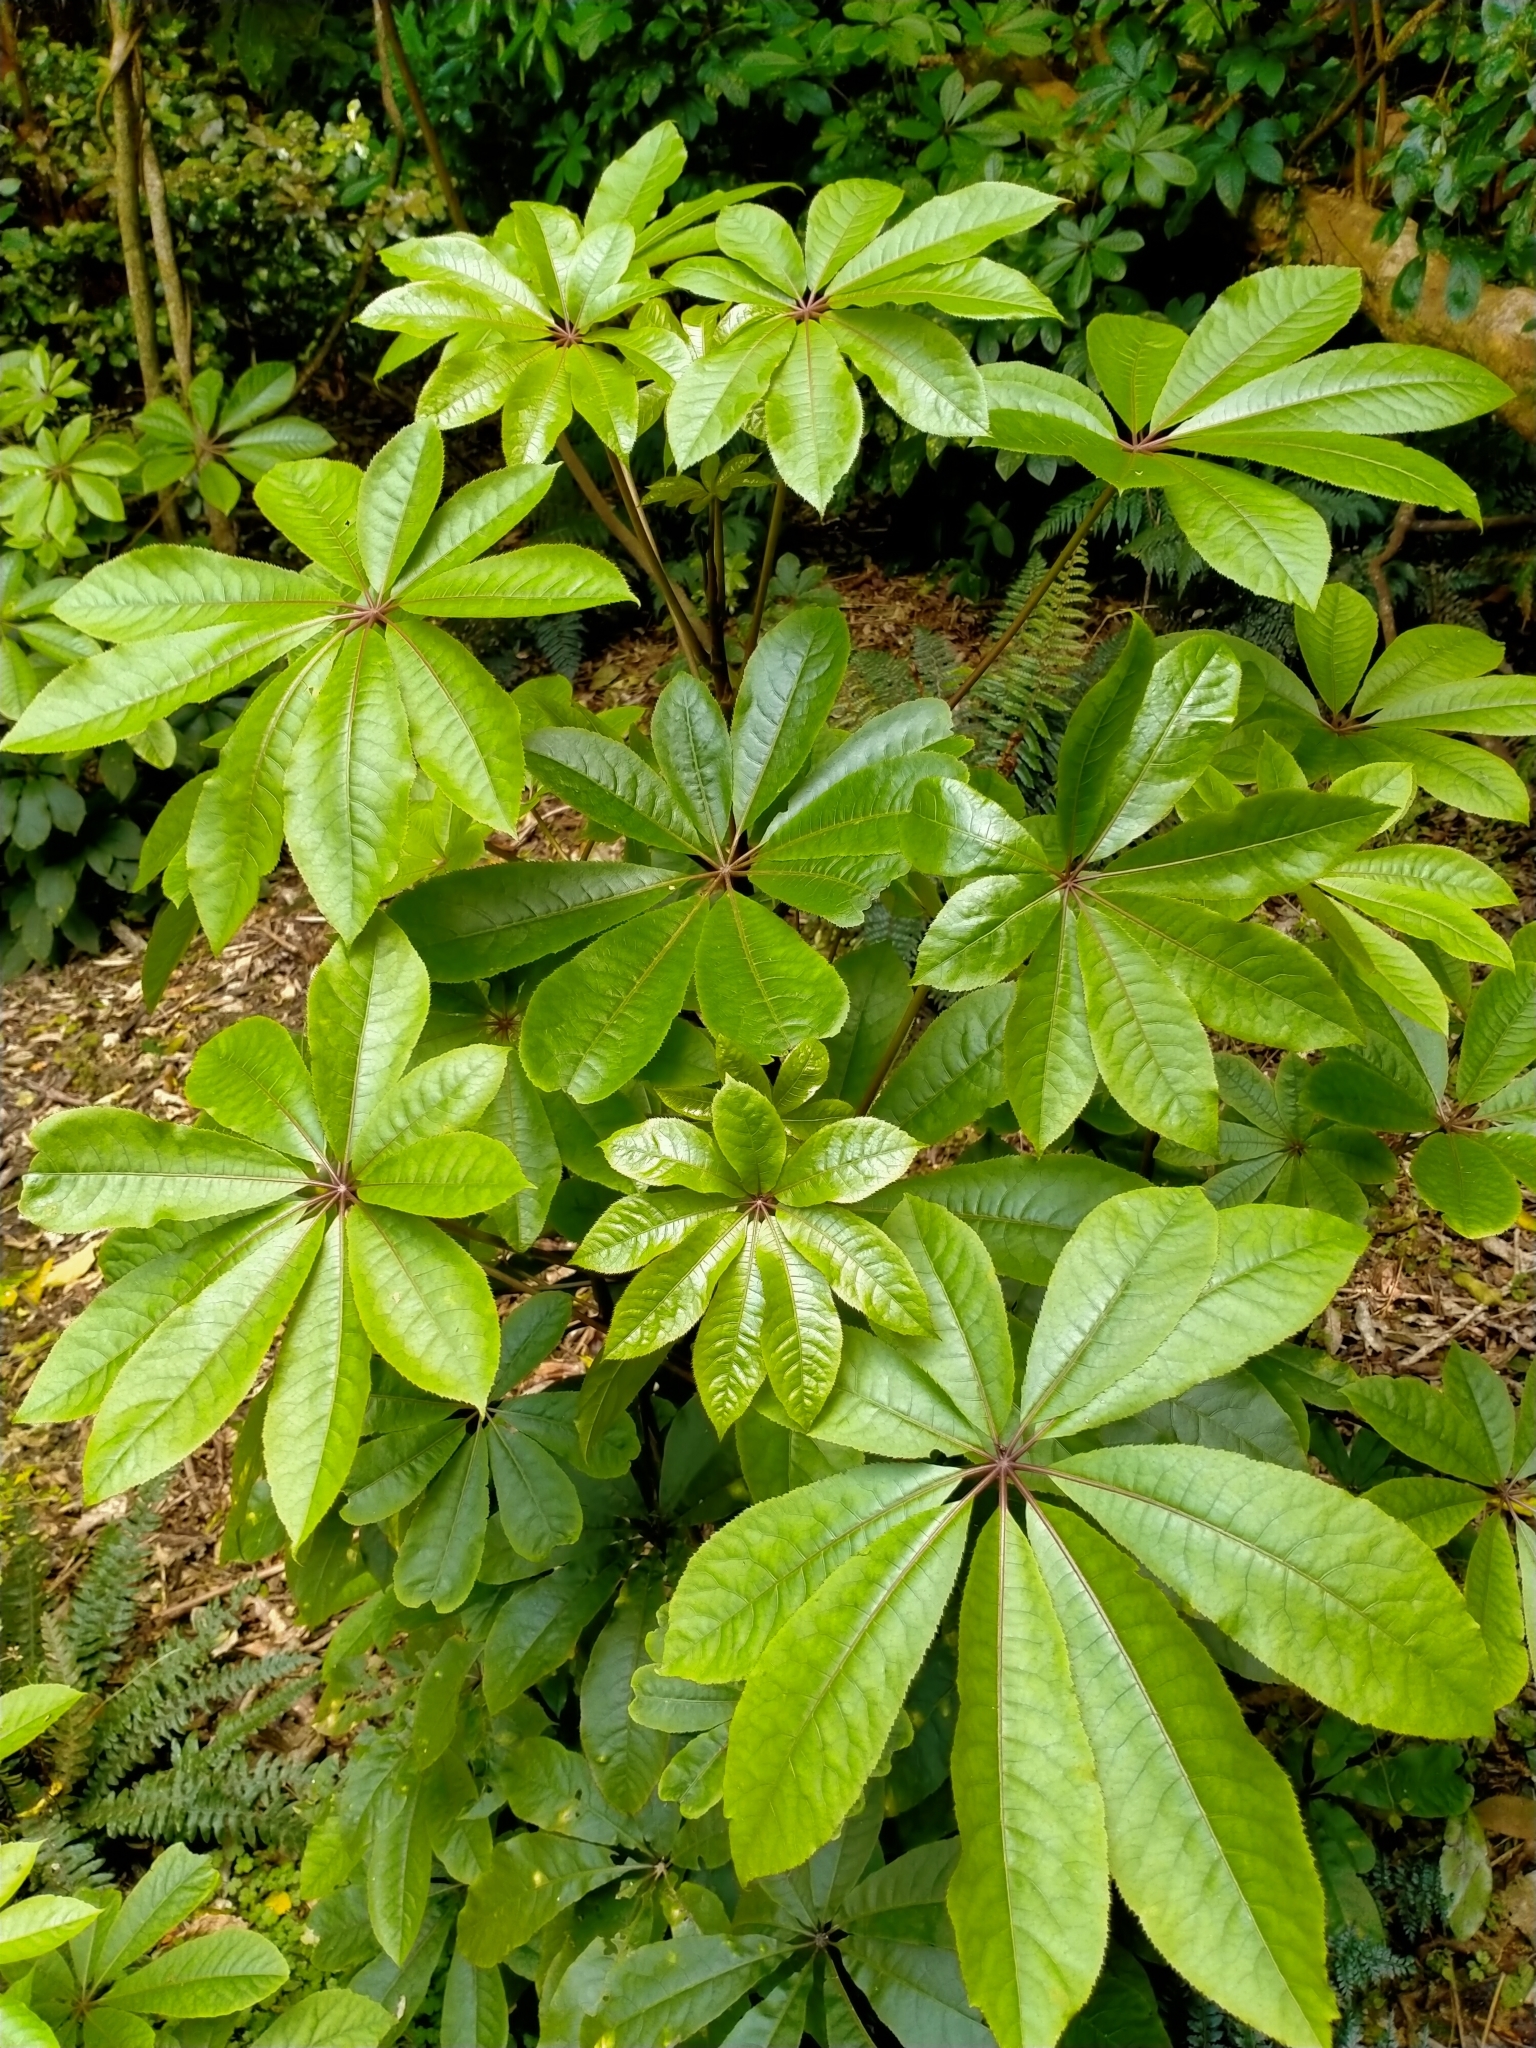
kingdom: Plantae
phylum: Tracheophyta
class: Magnoliopsida
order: Apiales
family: Araliaceae
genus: Schefflera
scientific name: Schefflera digitata
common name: Pate
